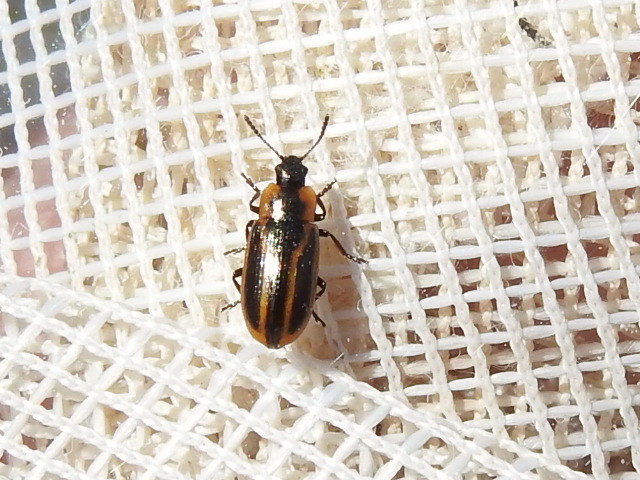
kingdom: Animalia
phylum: Arthropoda
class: Insecta
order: Coleoptera
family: Chrysomelidae
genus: Prasocuris
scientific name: Prasocuris vittata
